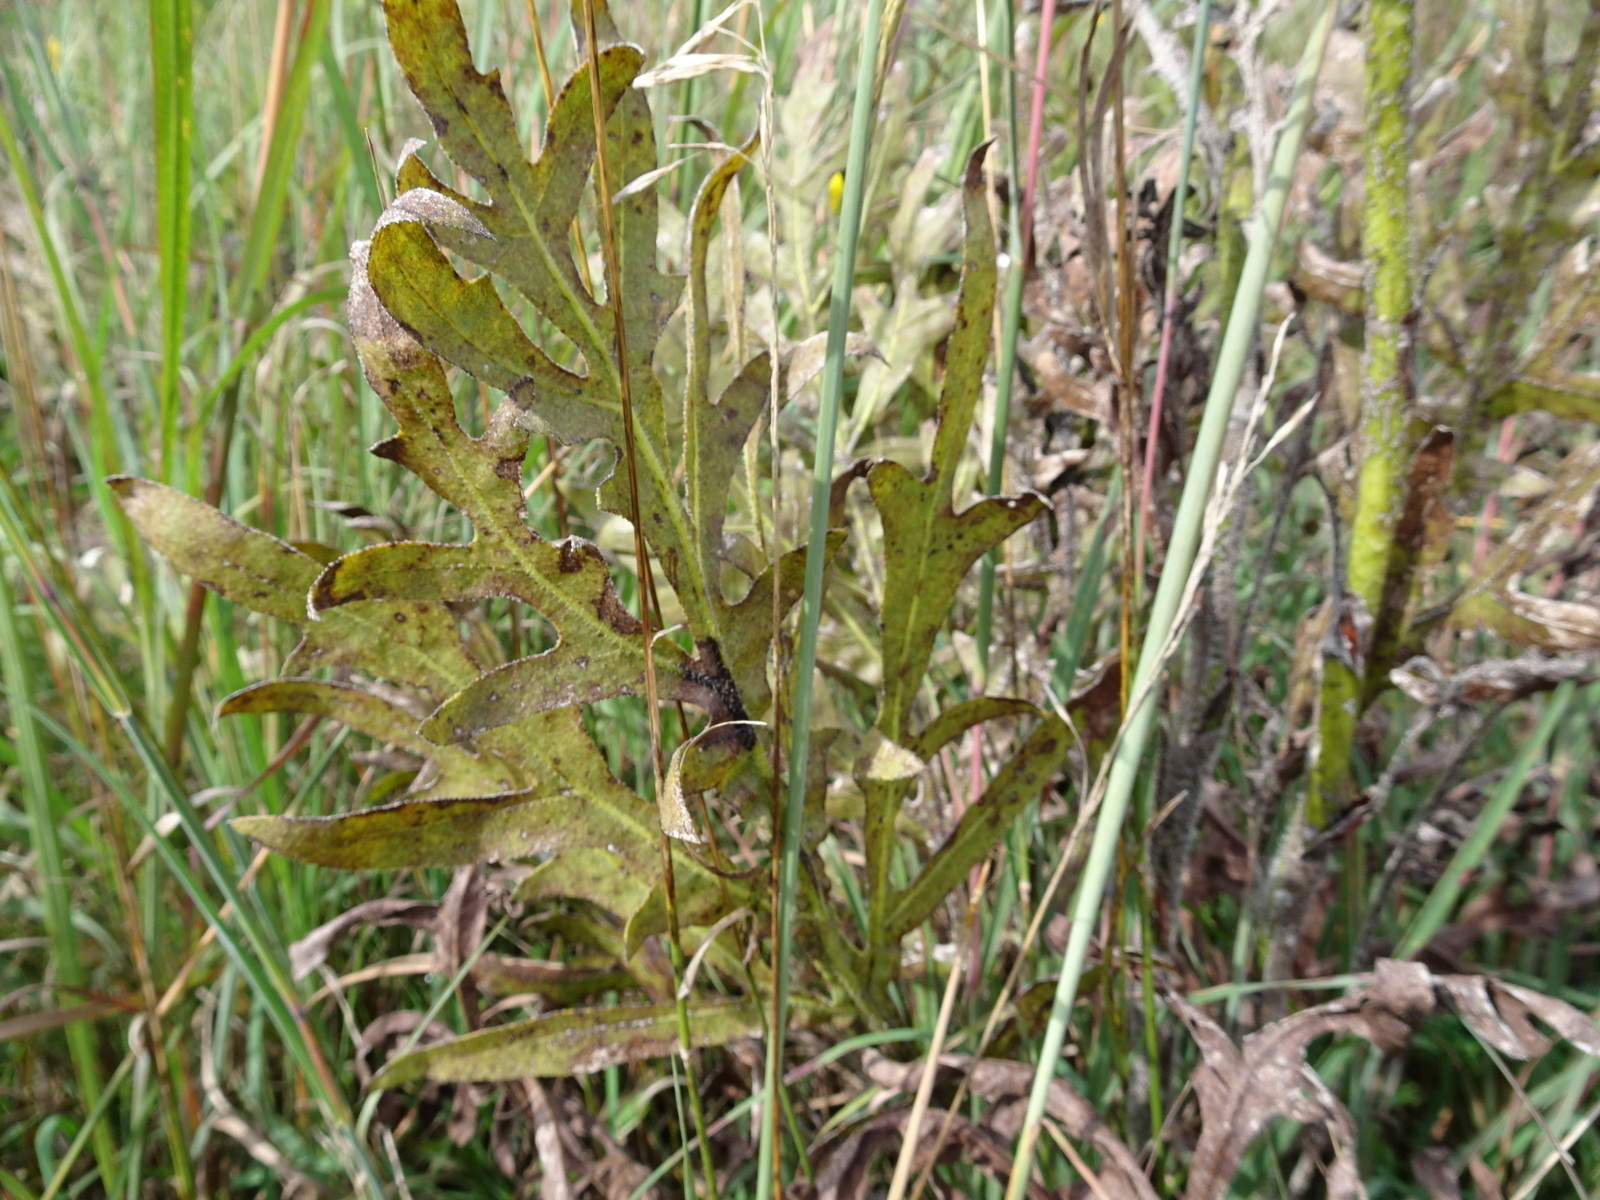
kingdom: Plantae
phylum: Tracheophyta
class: Magnoliopsida
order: Asterales
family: Asteraceae
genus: Silphium
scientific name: Silphium laciniatum
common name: Polarplant
